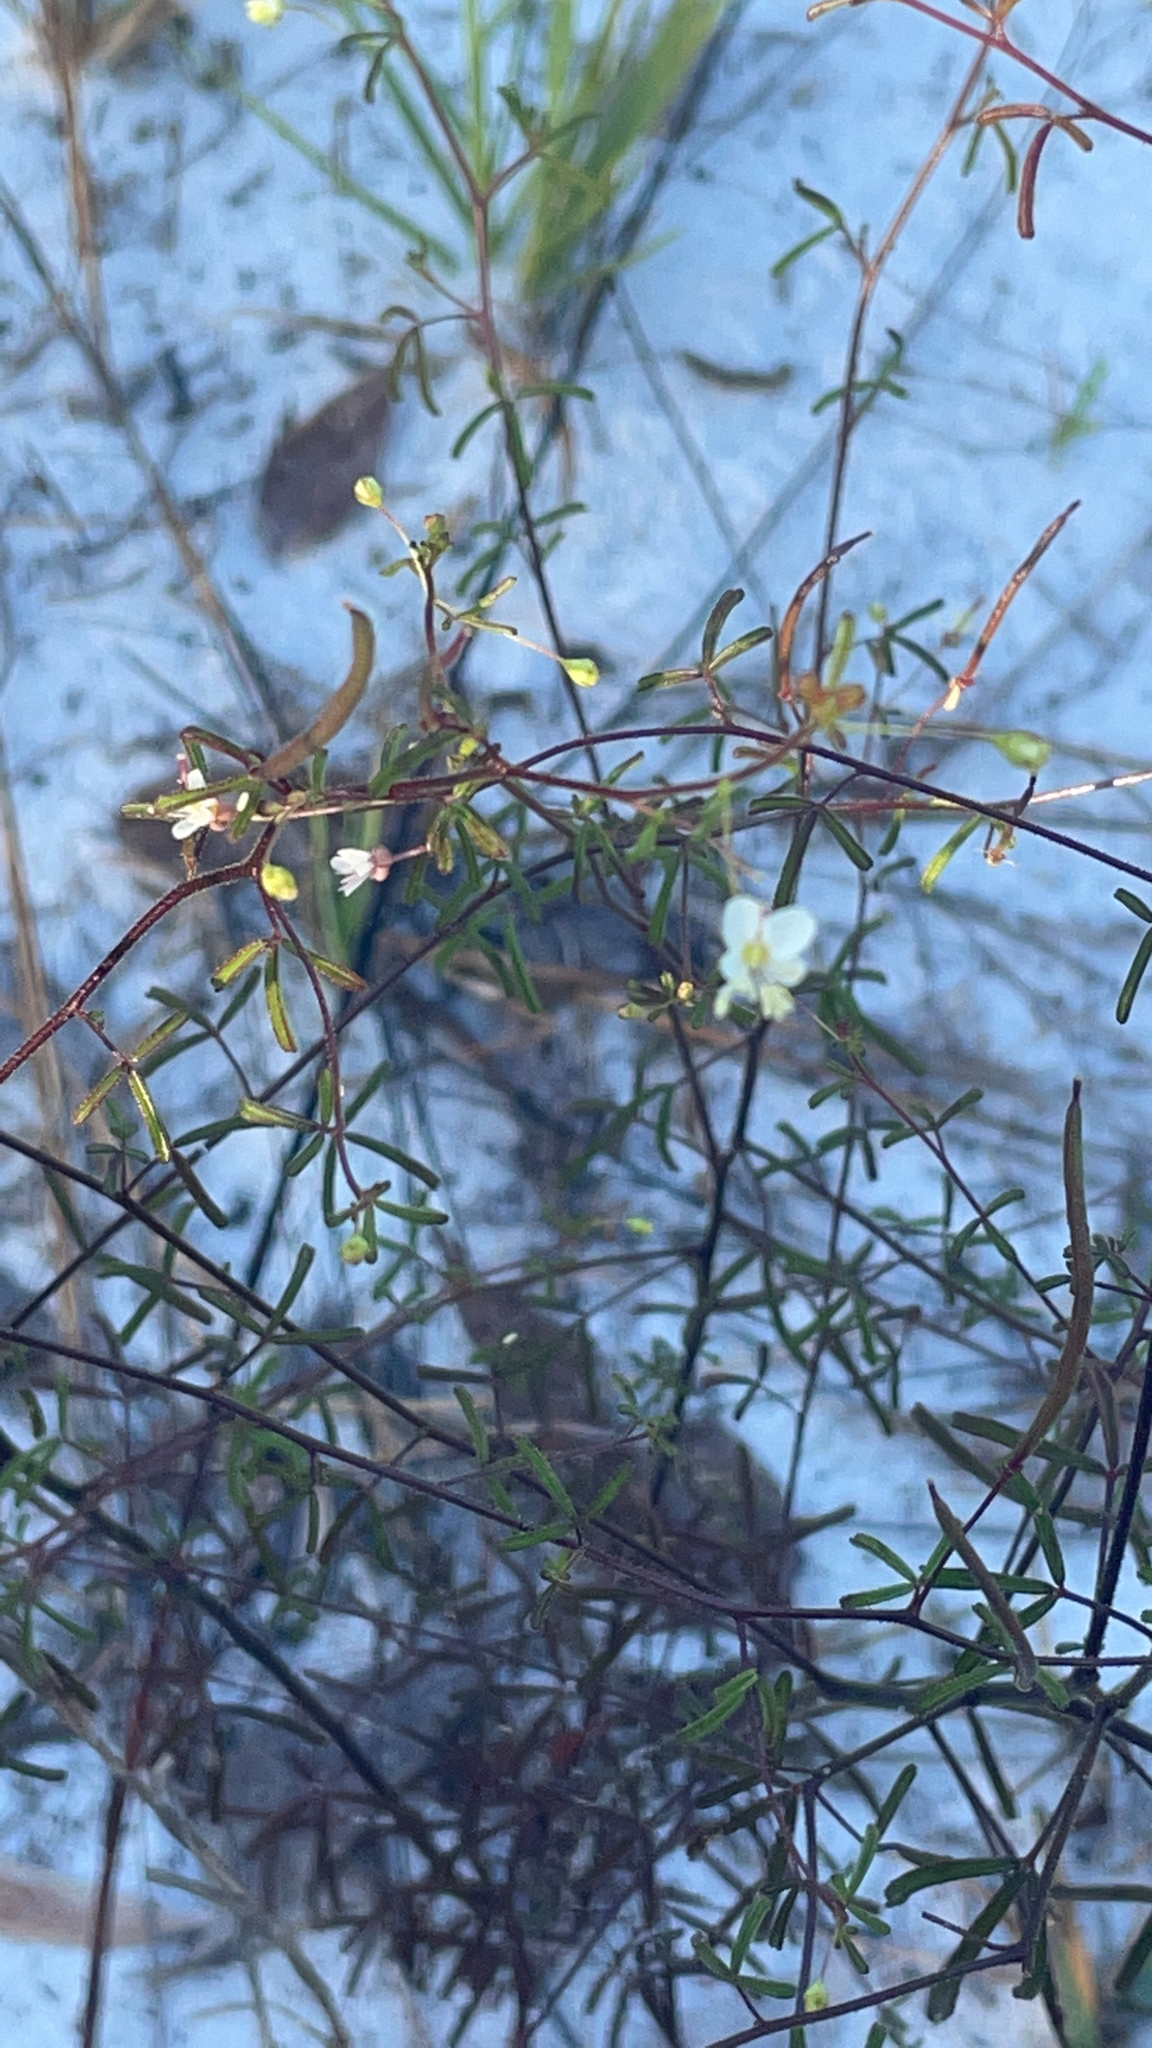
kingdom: Plantae
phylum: Tracheophyta
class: Magnoliopsida
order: Brassicales
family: Cleomaceae
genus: Polanisia
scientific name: Polanisia tenuifolia
